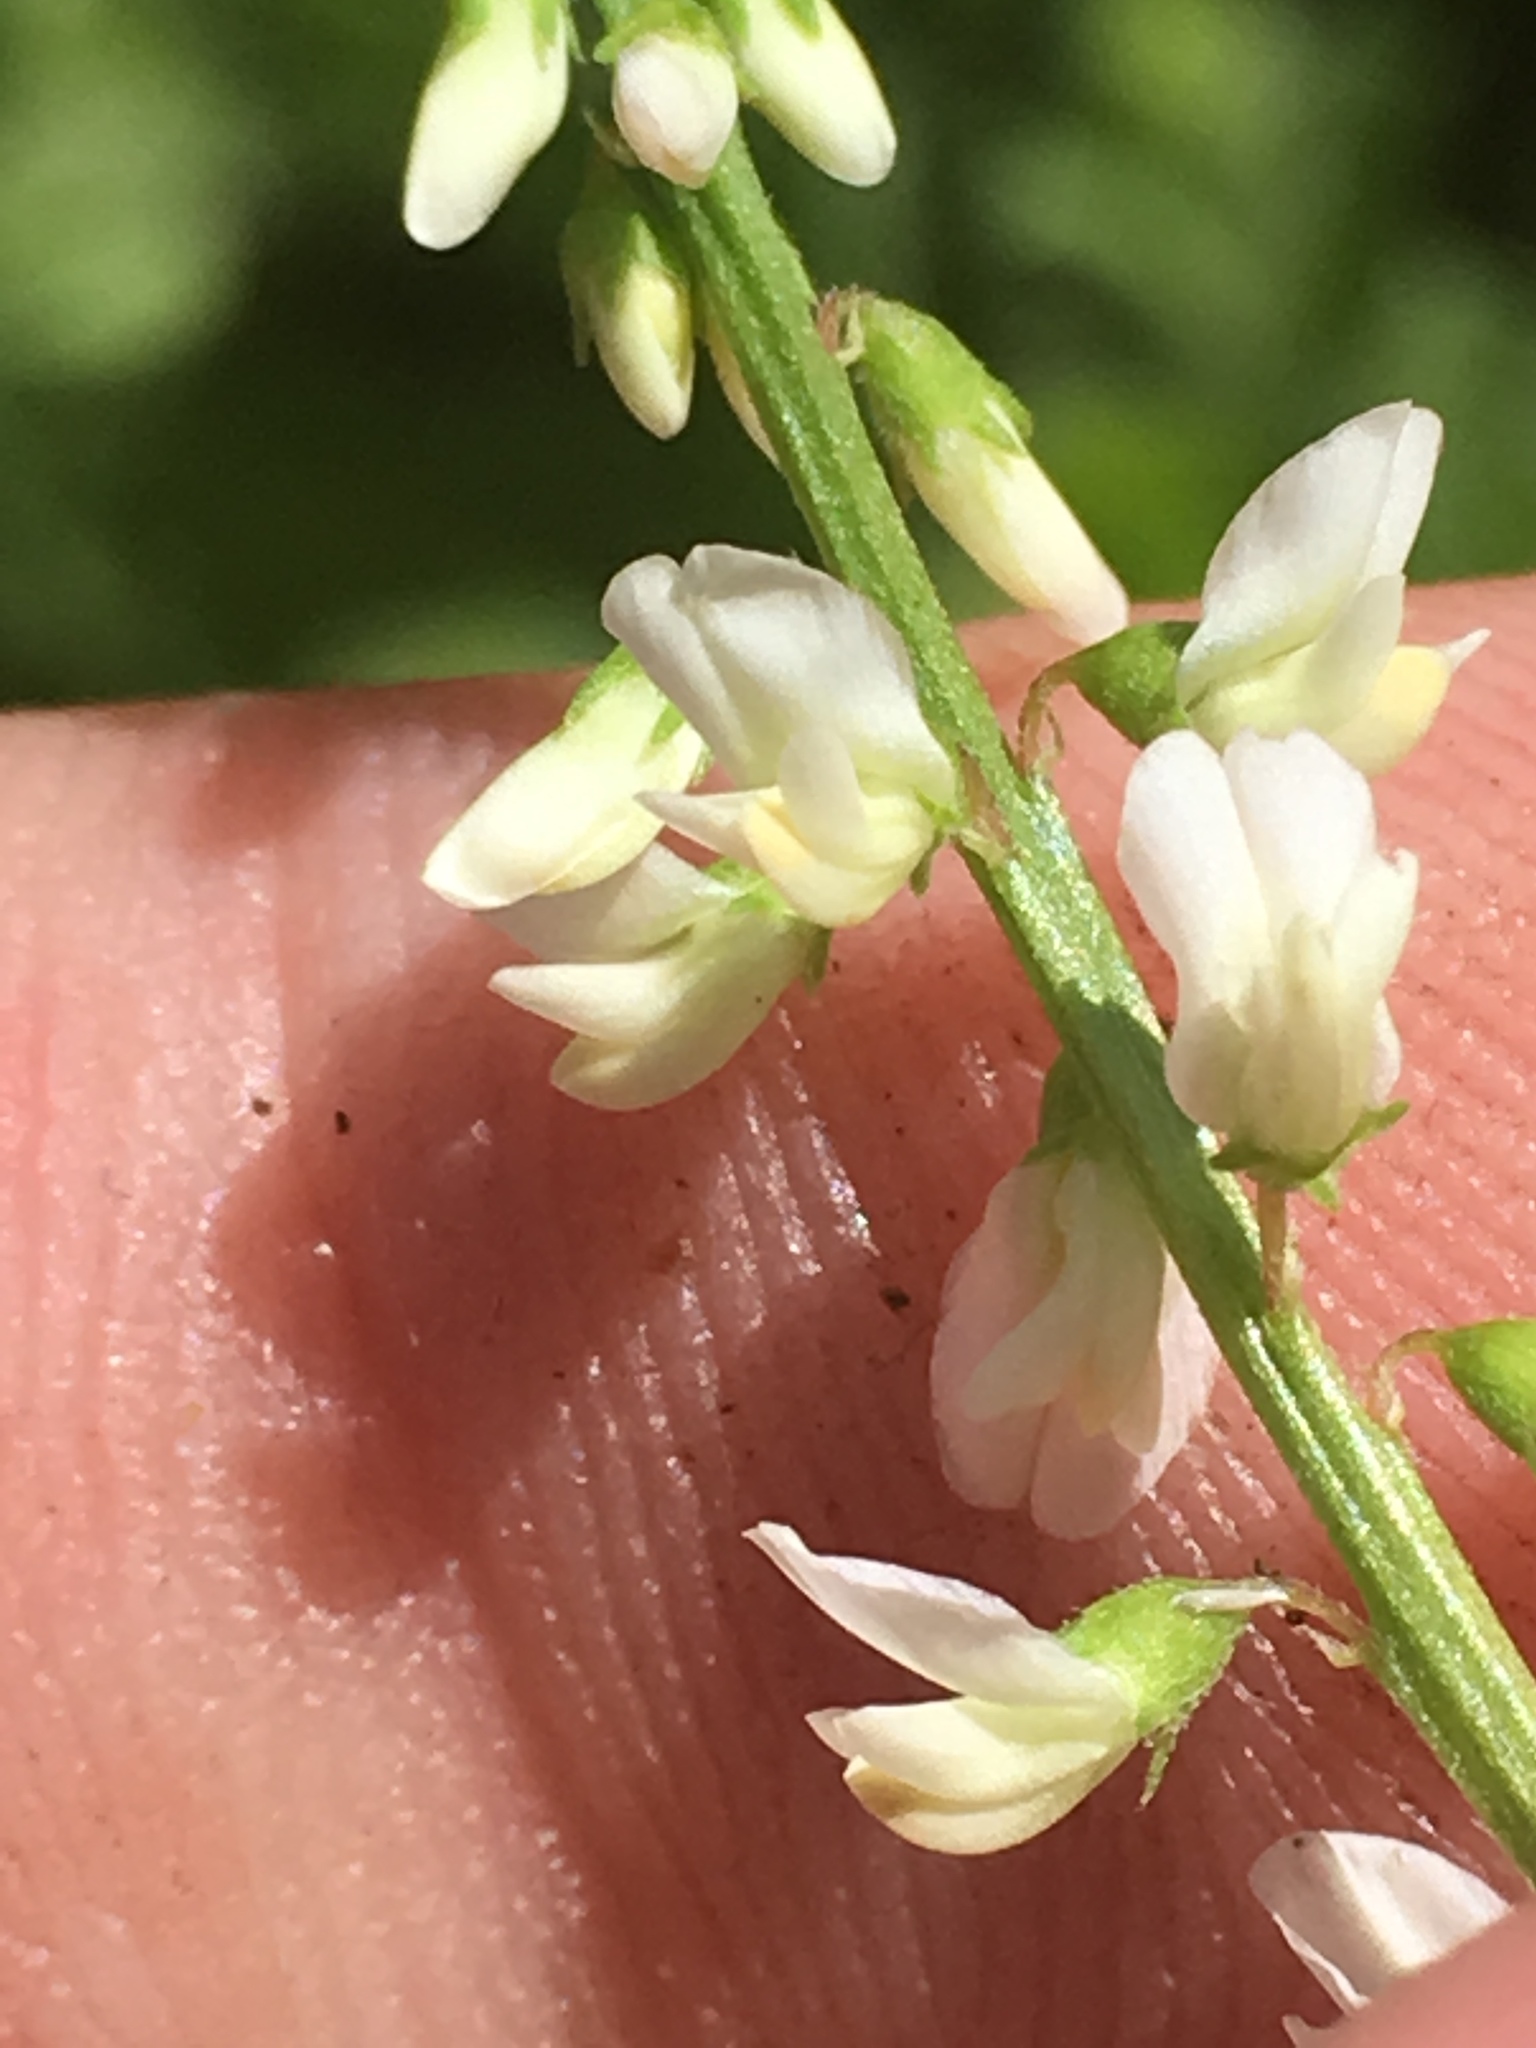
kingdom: Plantae
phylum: Tracheophyta
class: Magnoliopsida
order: Fabales
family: Fabaceae
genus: Melilotus
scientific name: Melilotus albus
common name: White melilot
